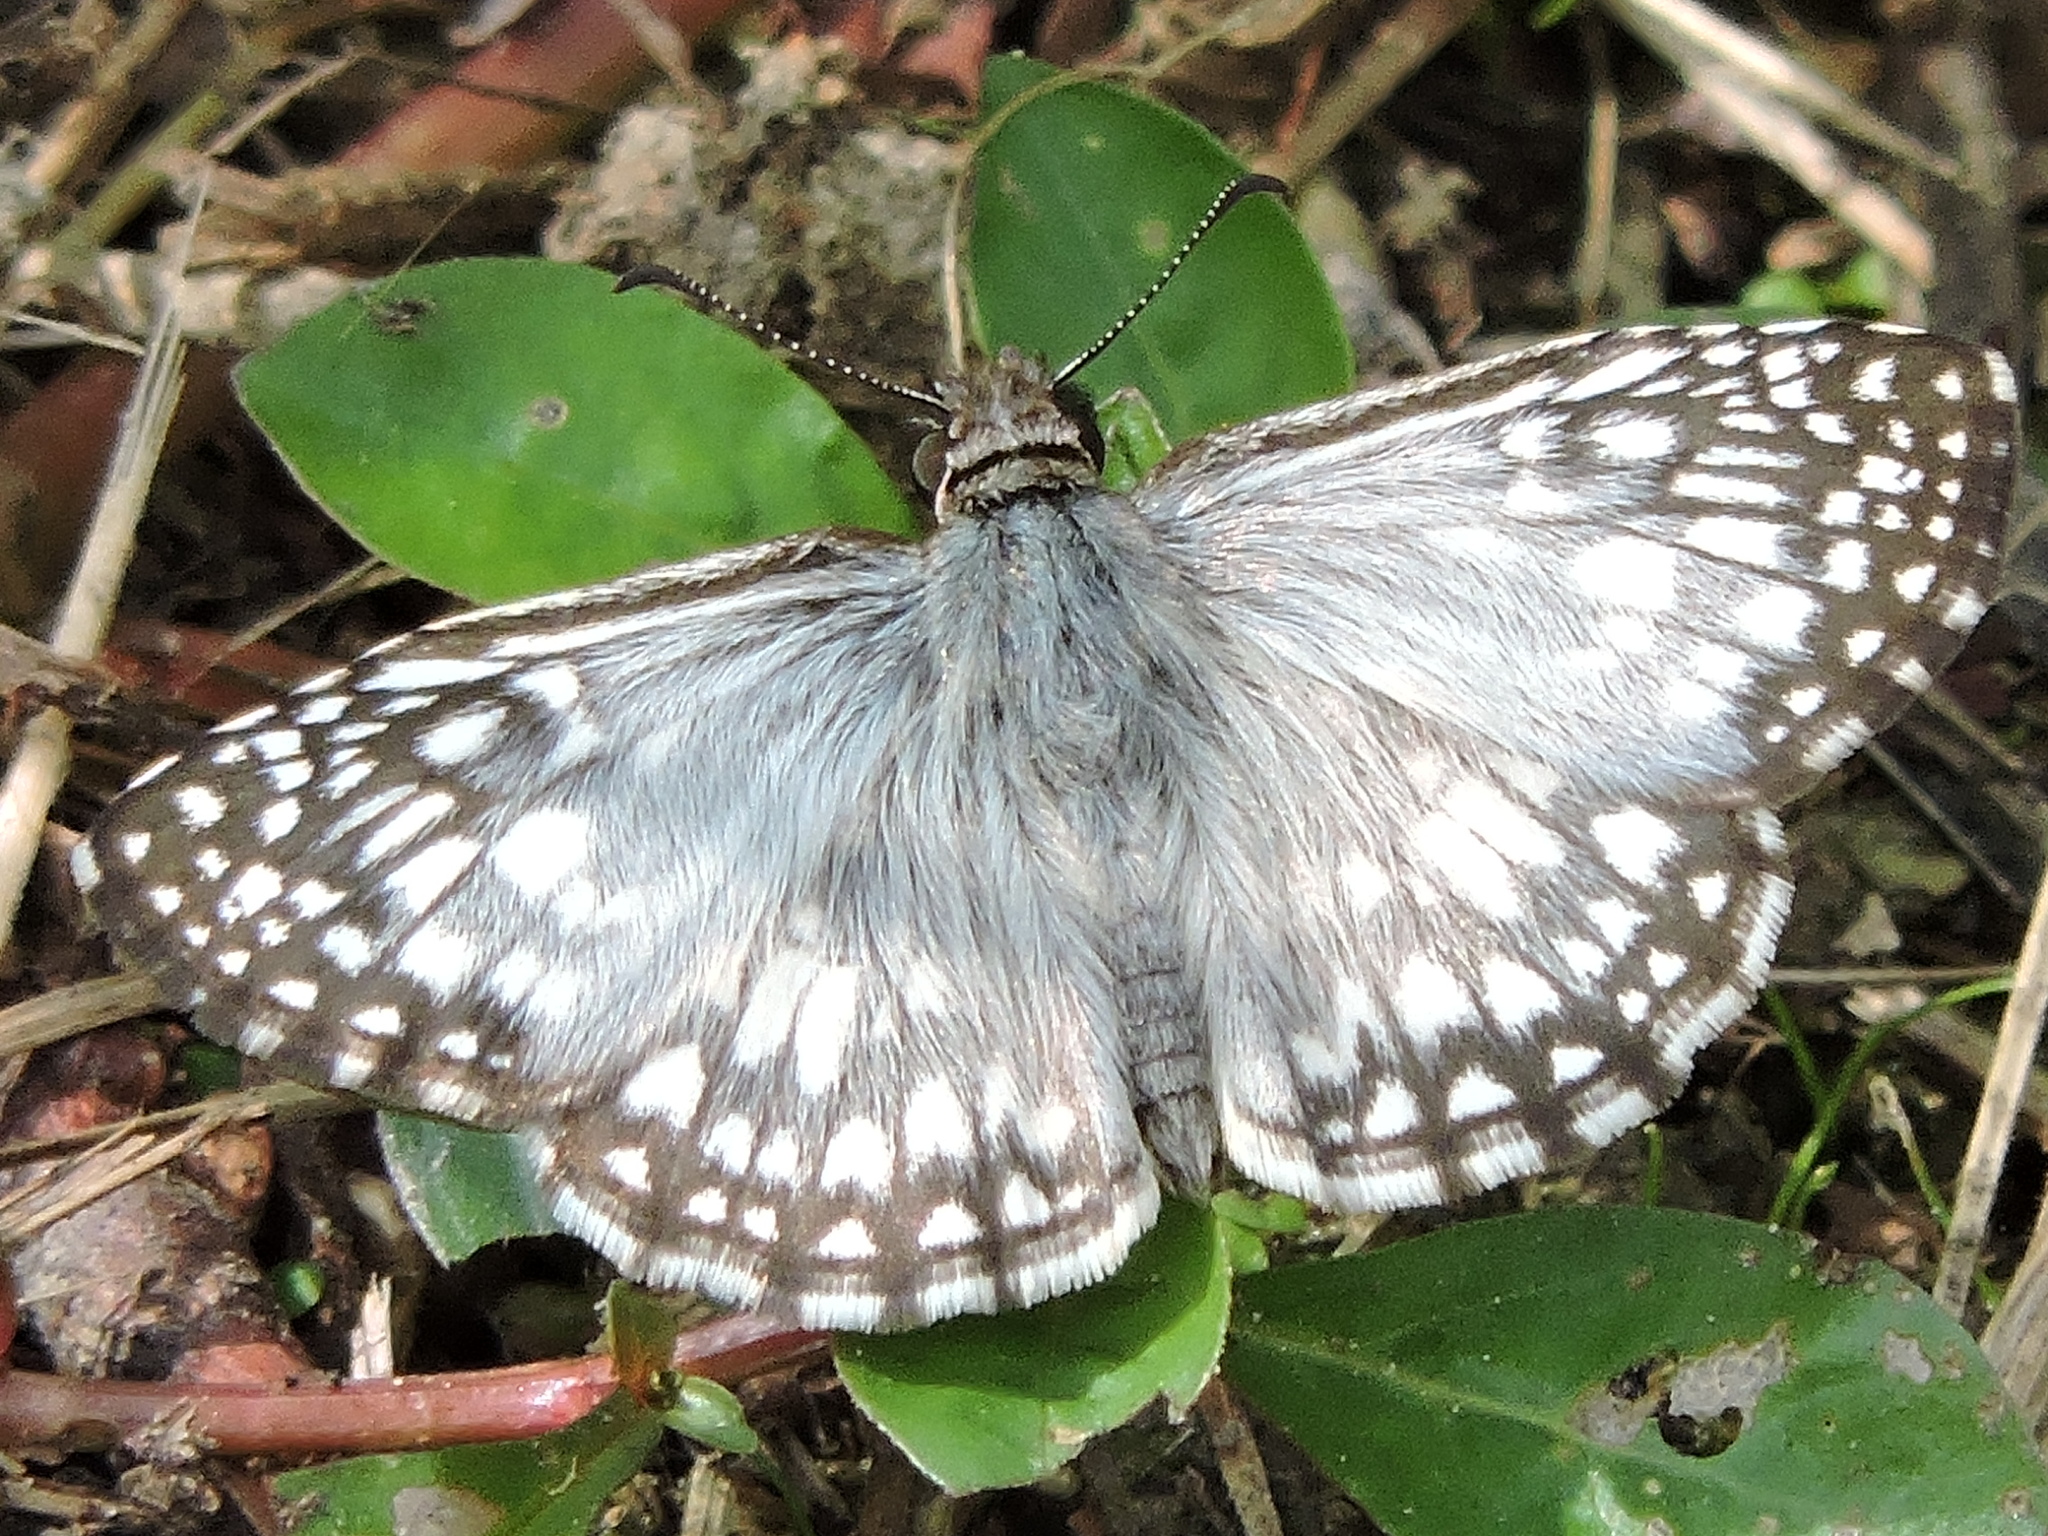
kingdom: Animalia
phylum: Arthropoda
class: Insecta
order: Lepidoptera
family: Hesperiidae
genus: Pyrgus
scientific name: Pyrgus oileus
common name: Tropical checkered-skipper
